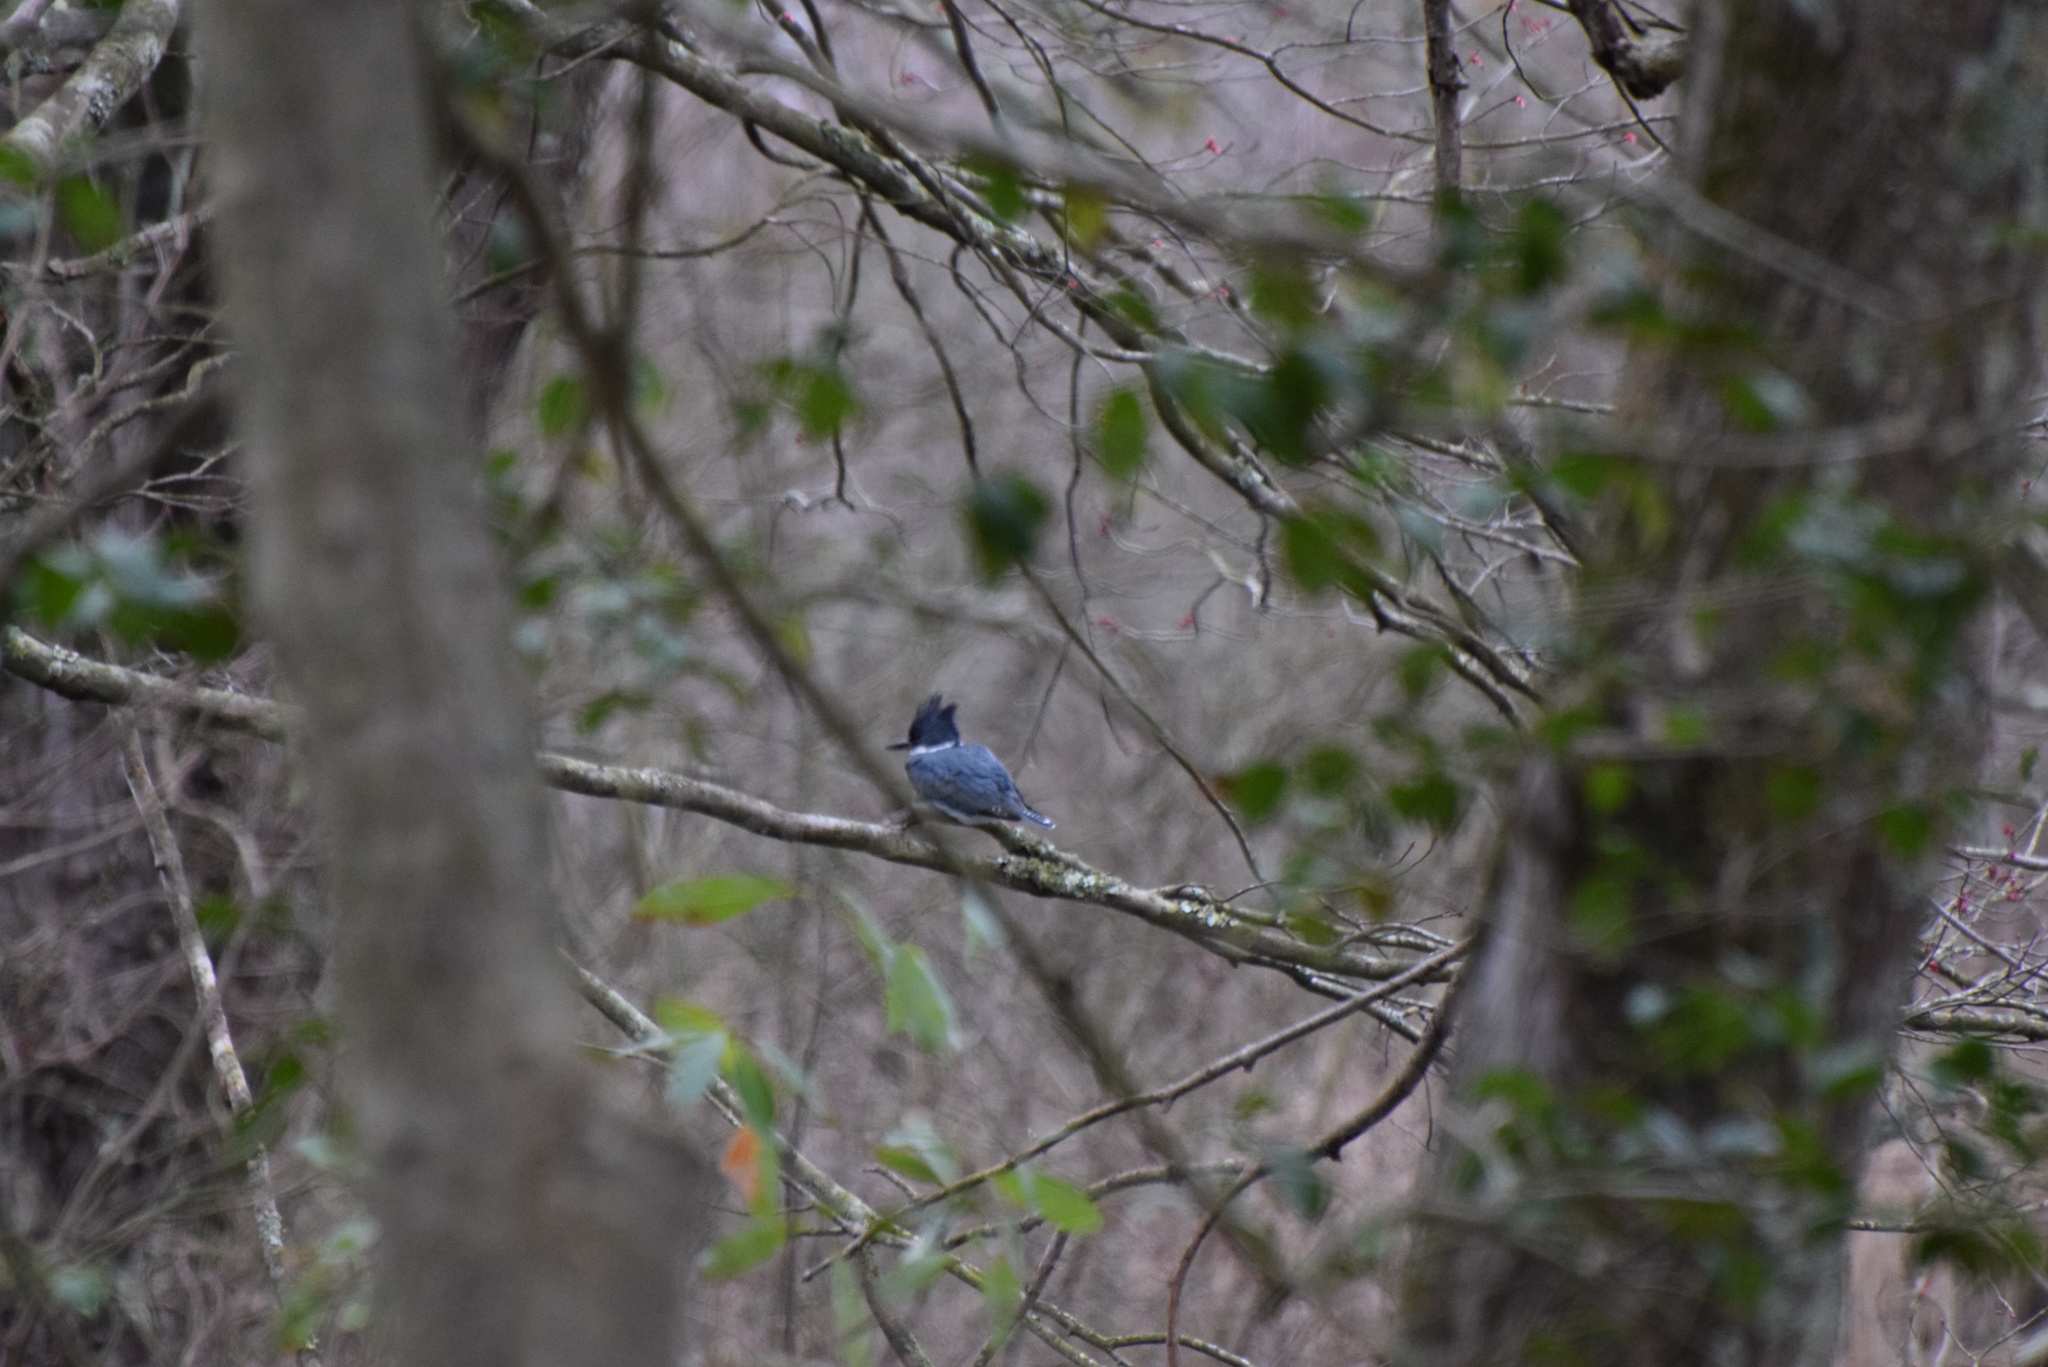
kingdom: Animalia
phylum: Chordata
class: Aves
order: Coraciiformes
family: Alcedinidae
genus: Megaceryle
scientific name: Megaceryle alcyon
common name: Belted kingfisher
